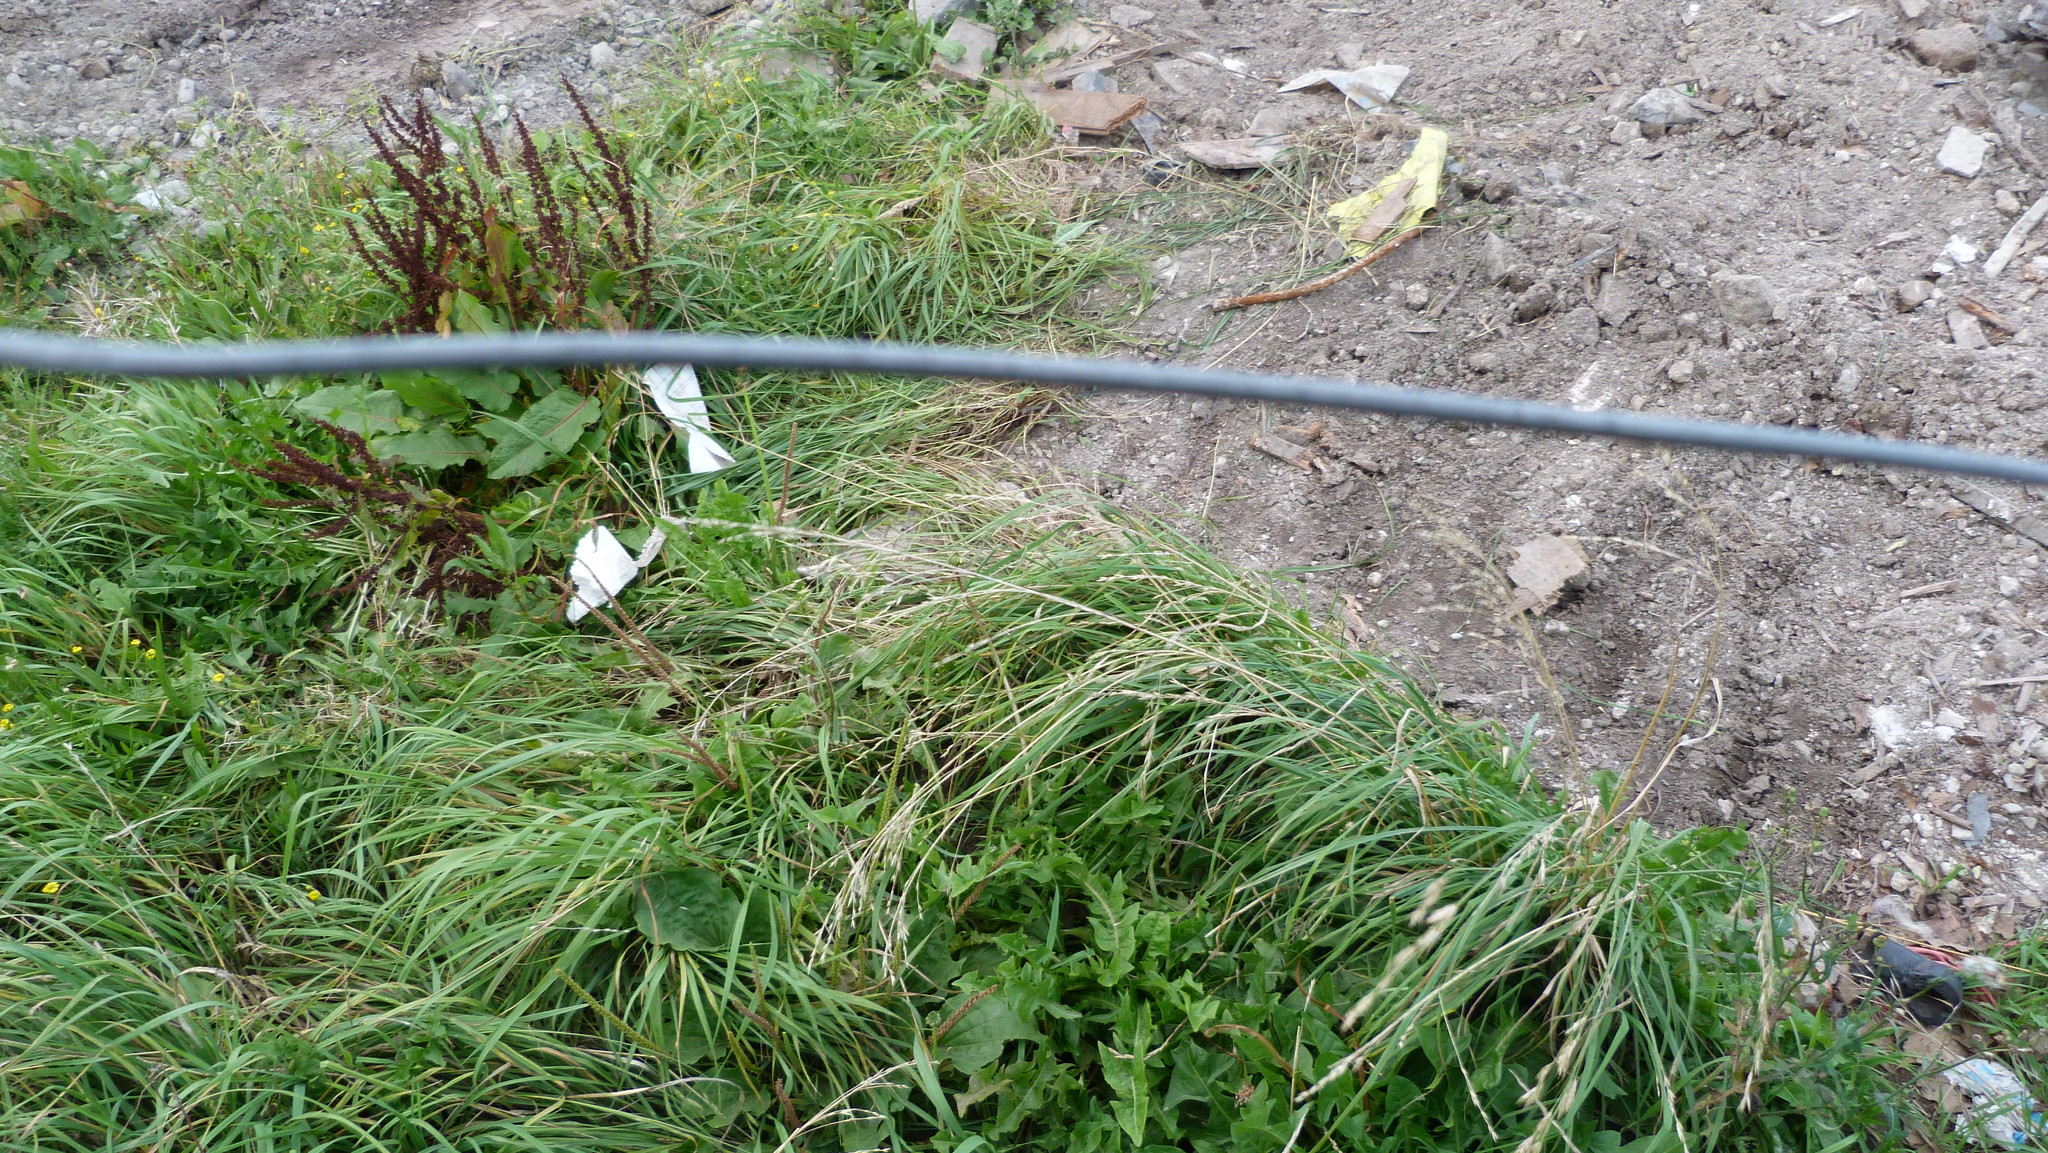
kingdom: Plantae
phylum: Tracheophyta
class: Magnoliopsida
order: Asterales
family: Asteraceae
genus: Taraxacum
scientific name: Taraxacum officinale
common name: Common dandelion
